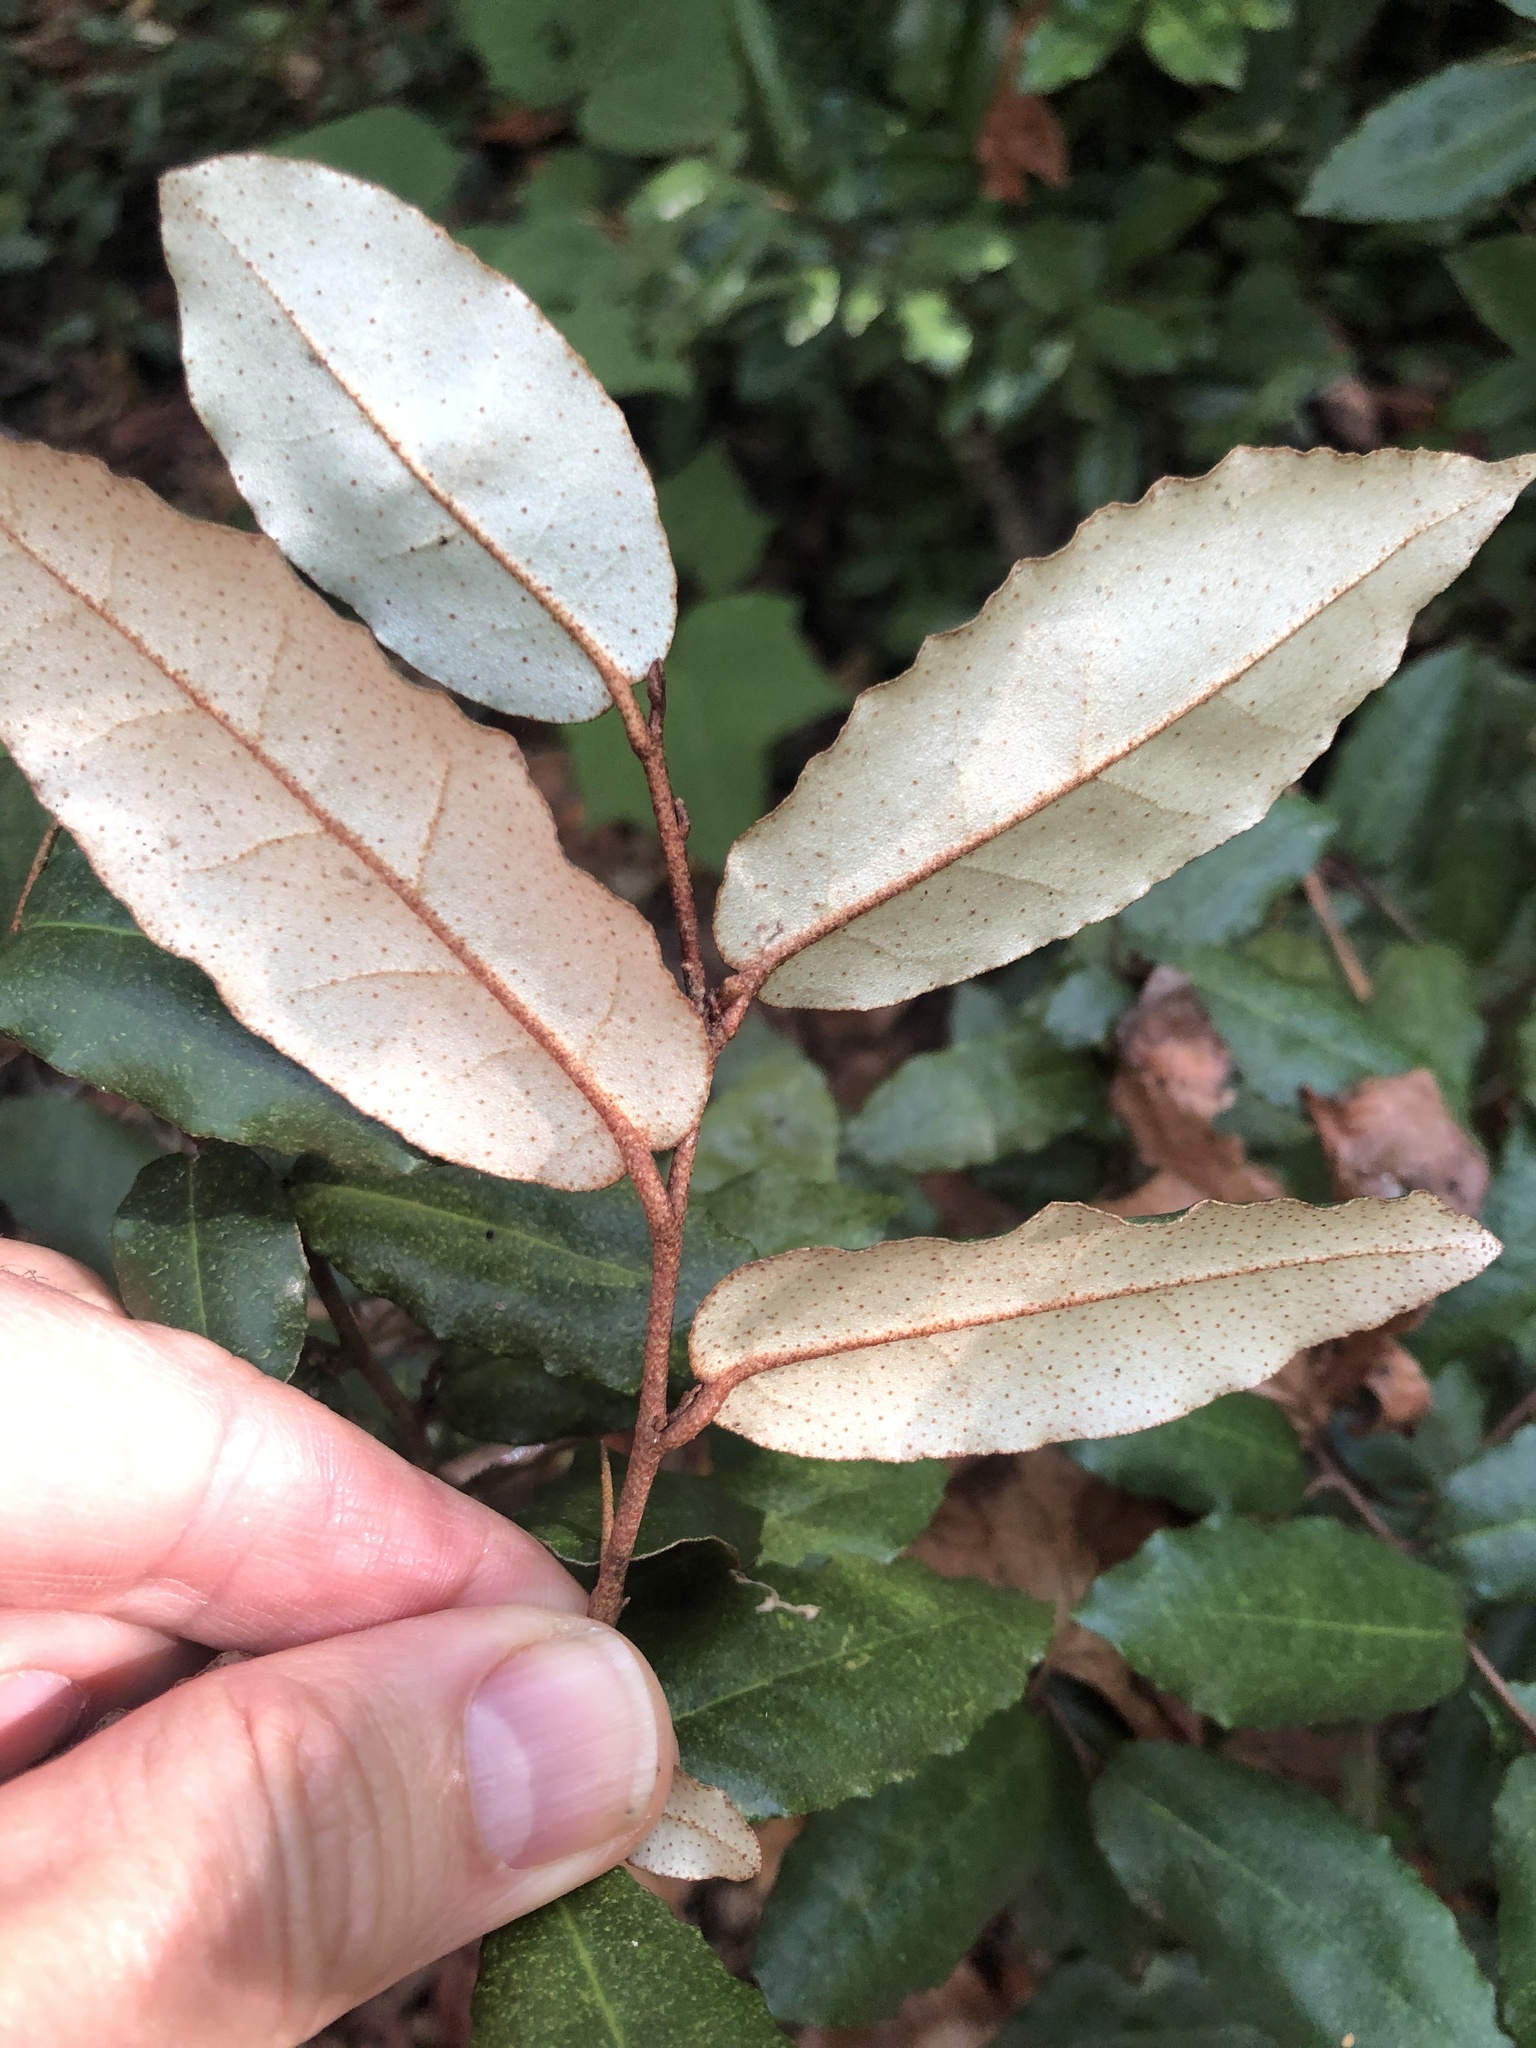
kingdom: Plantae
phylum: Tracheophyta
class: Magnoliopsida
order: Rosales
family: Elaeagnaceae
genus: Elaeagnus
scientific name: Elaeagnus pungens
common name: Spiny oleaster
